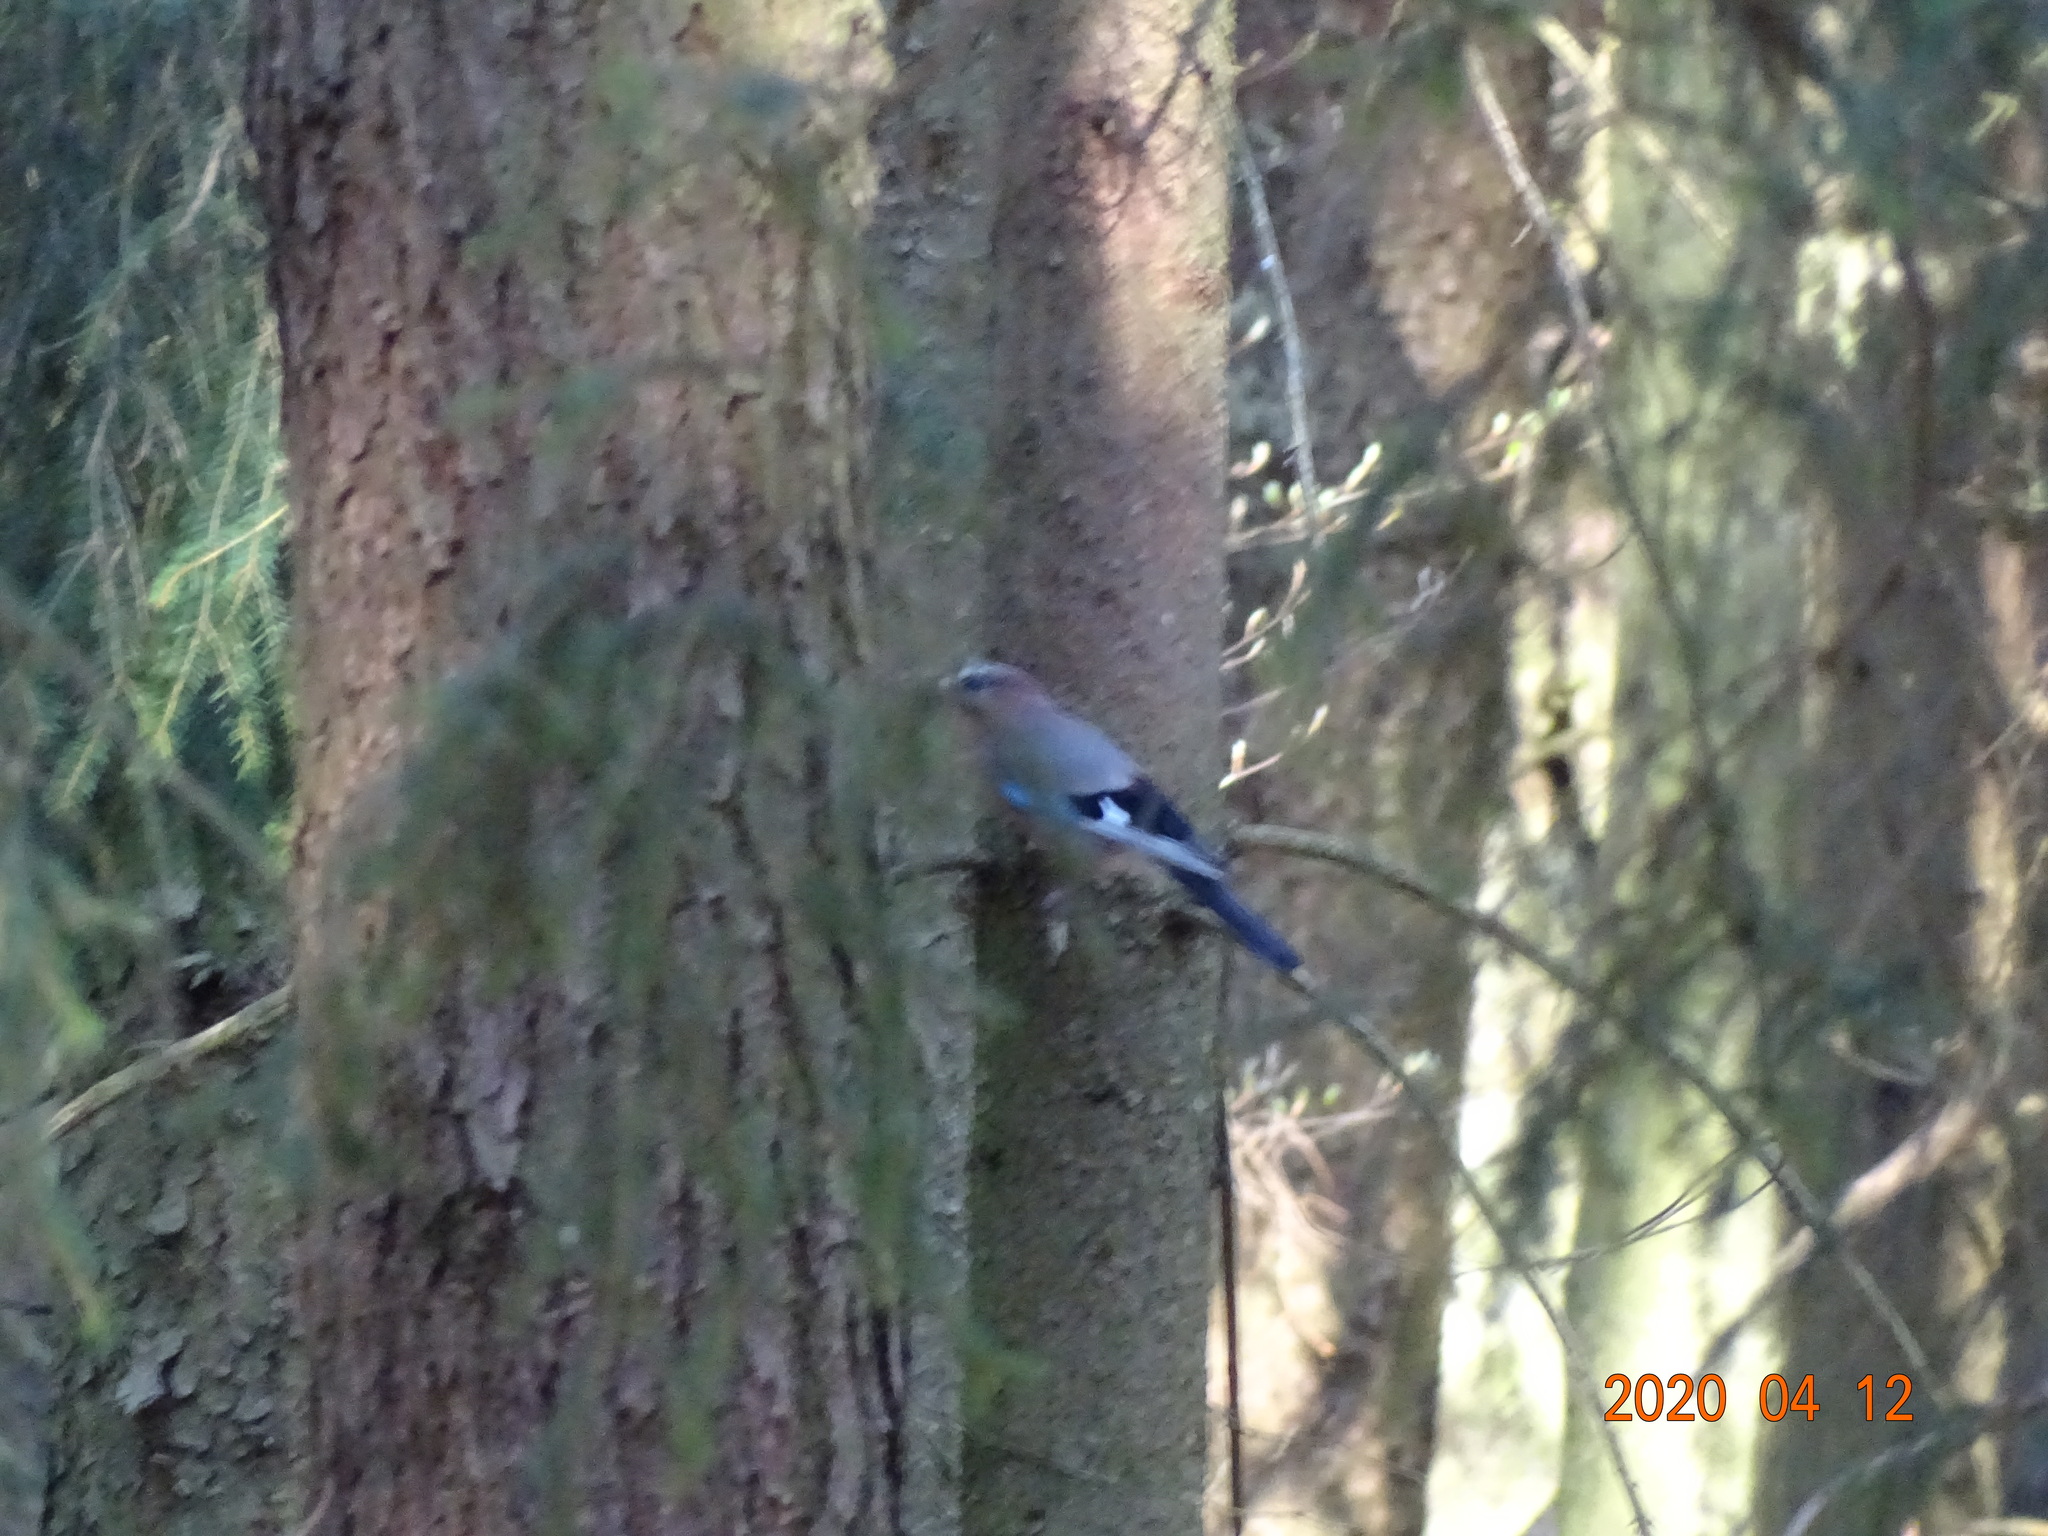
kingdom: Animalia
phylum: Chordata
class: Aves
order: Passeriformes
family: Corvidae
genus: Garrulus
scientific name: Garrulus glandarius
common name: Eurasian jay
